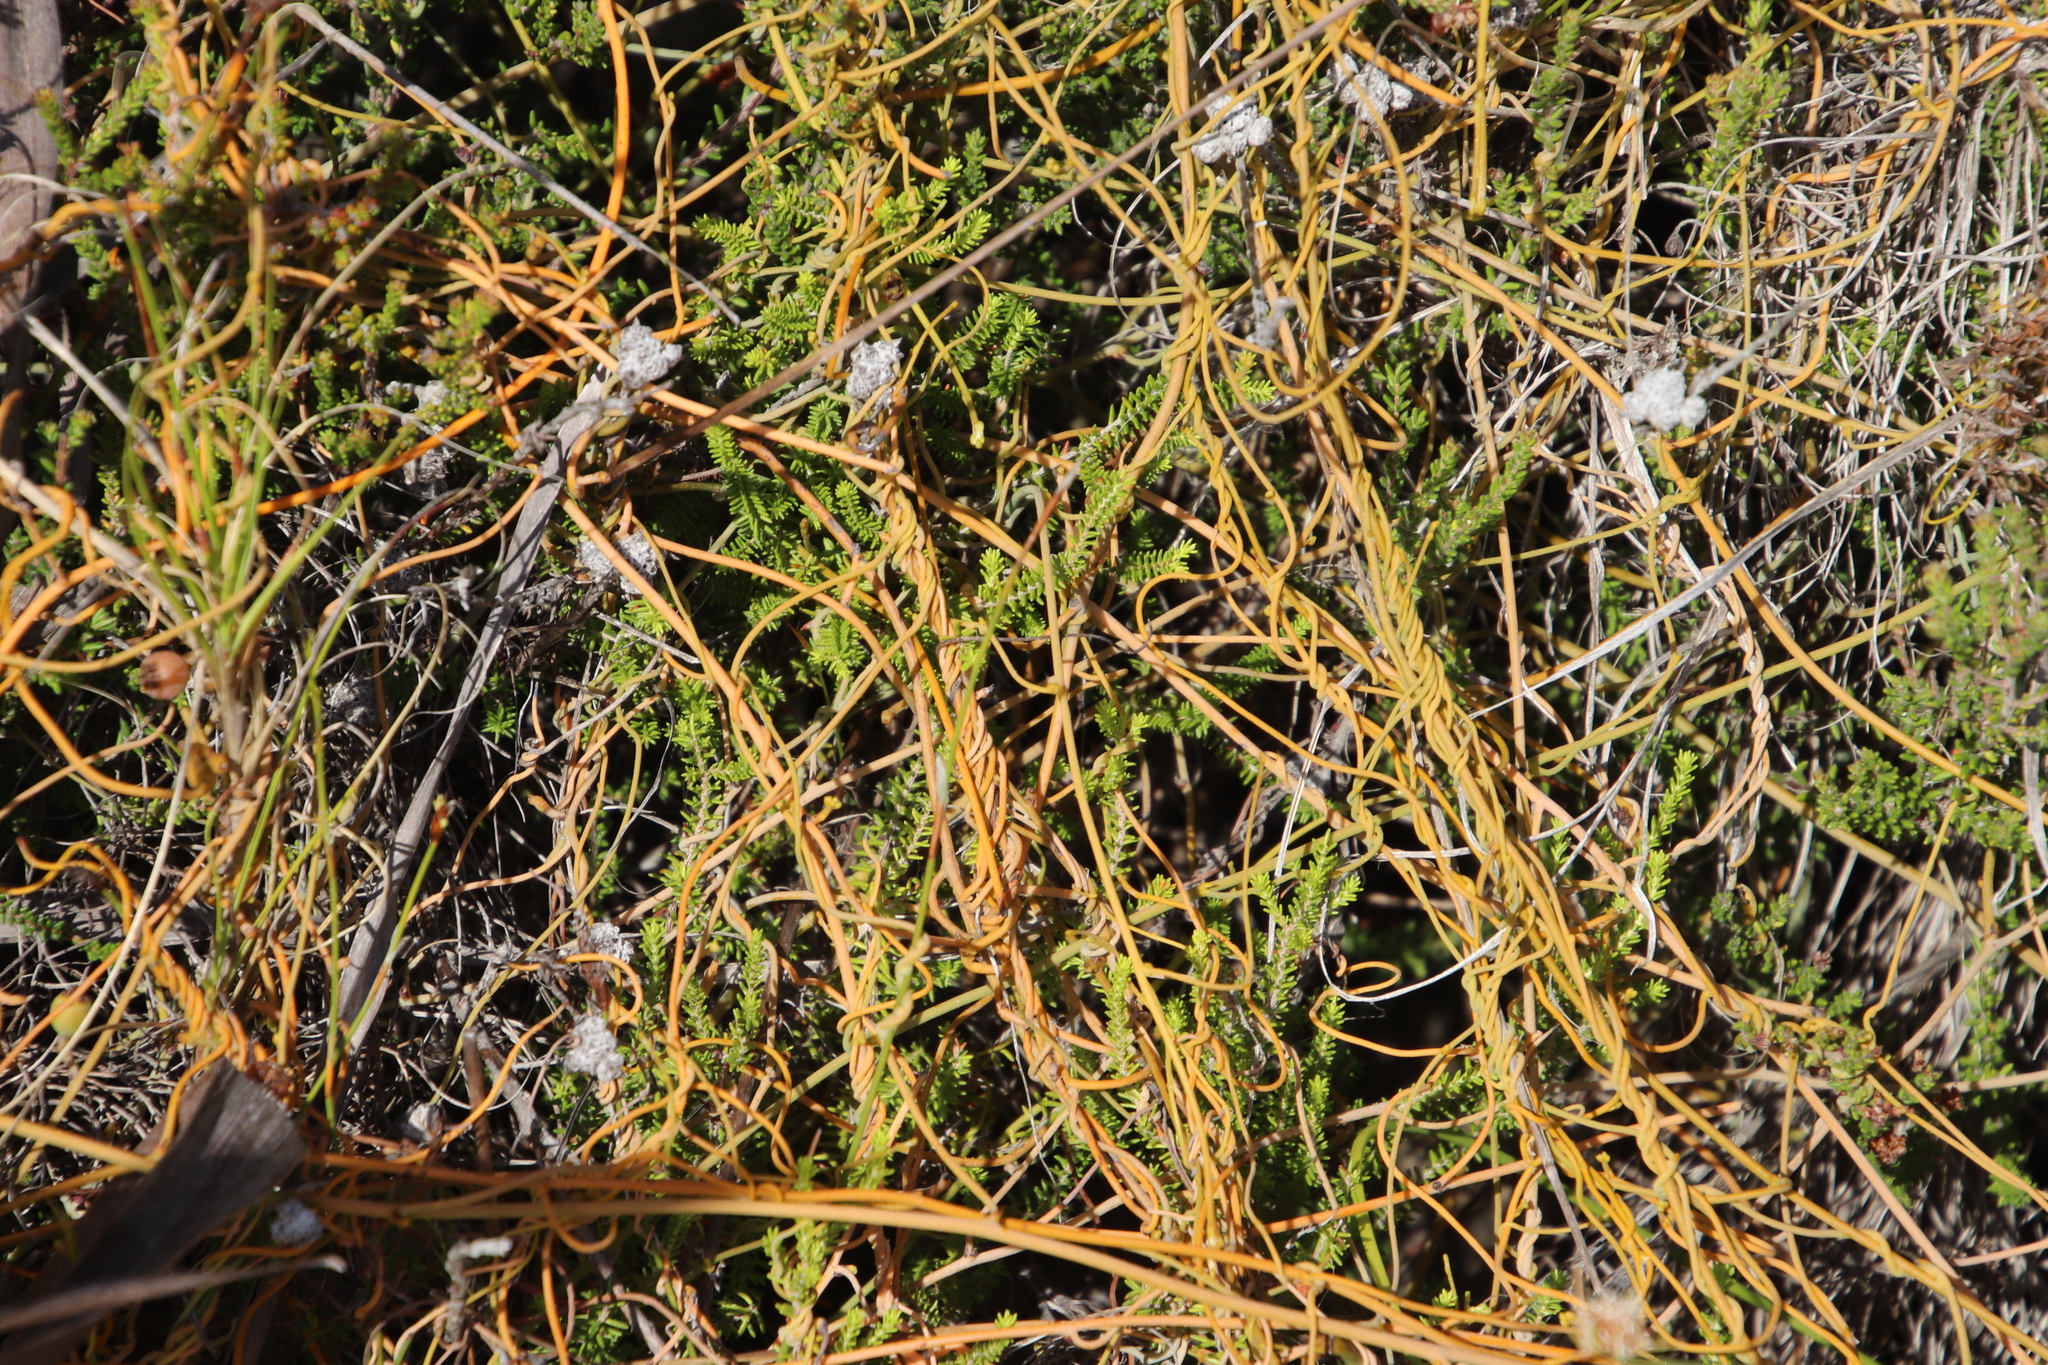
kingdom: Plantae
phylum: Tracheophyta
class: Magnoliopsida
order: Laurales
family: Lauraceae
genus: Cassytha
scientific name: Cassytha ciliolata
